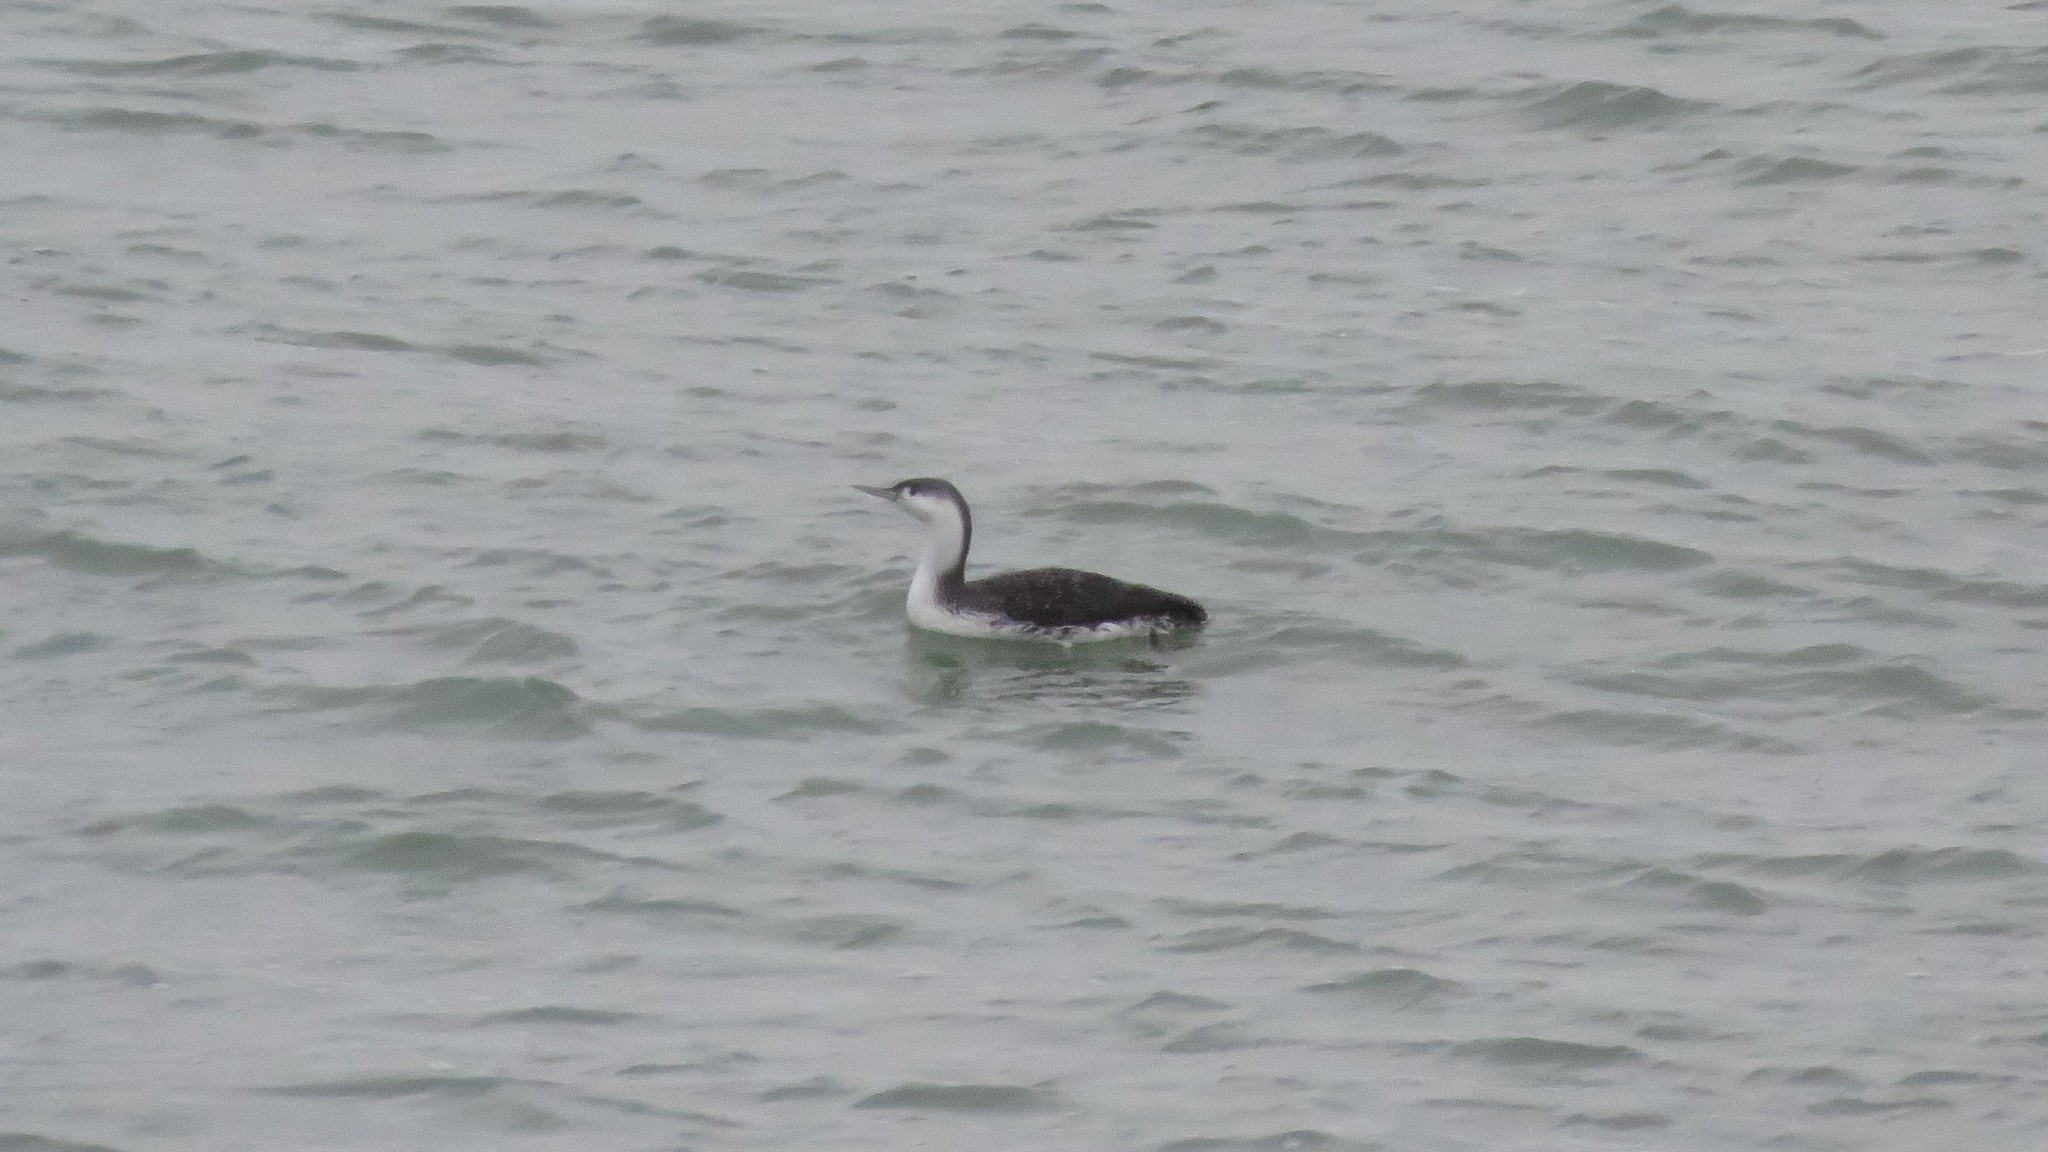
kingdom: Animalia
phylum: Chordata
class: Aves
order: Gaviiformes
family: Gaviidae
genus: Gavia
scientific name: Gavia stellata
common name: Red-throated loon
